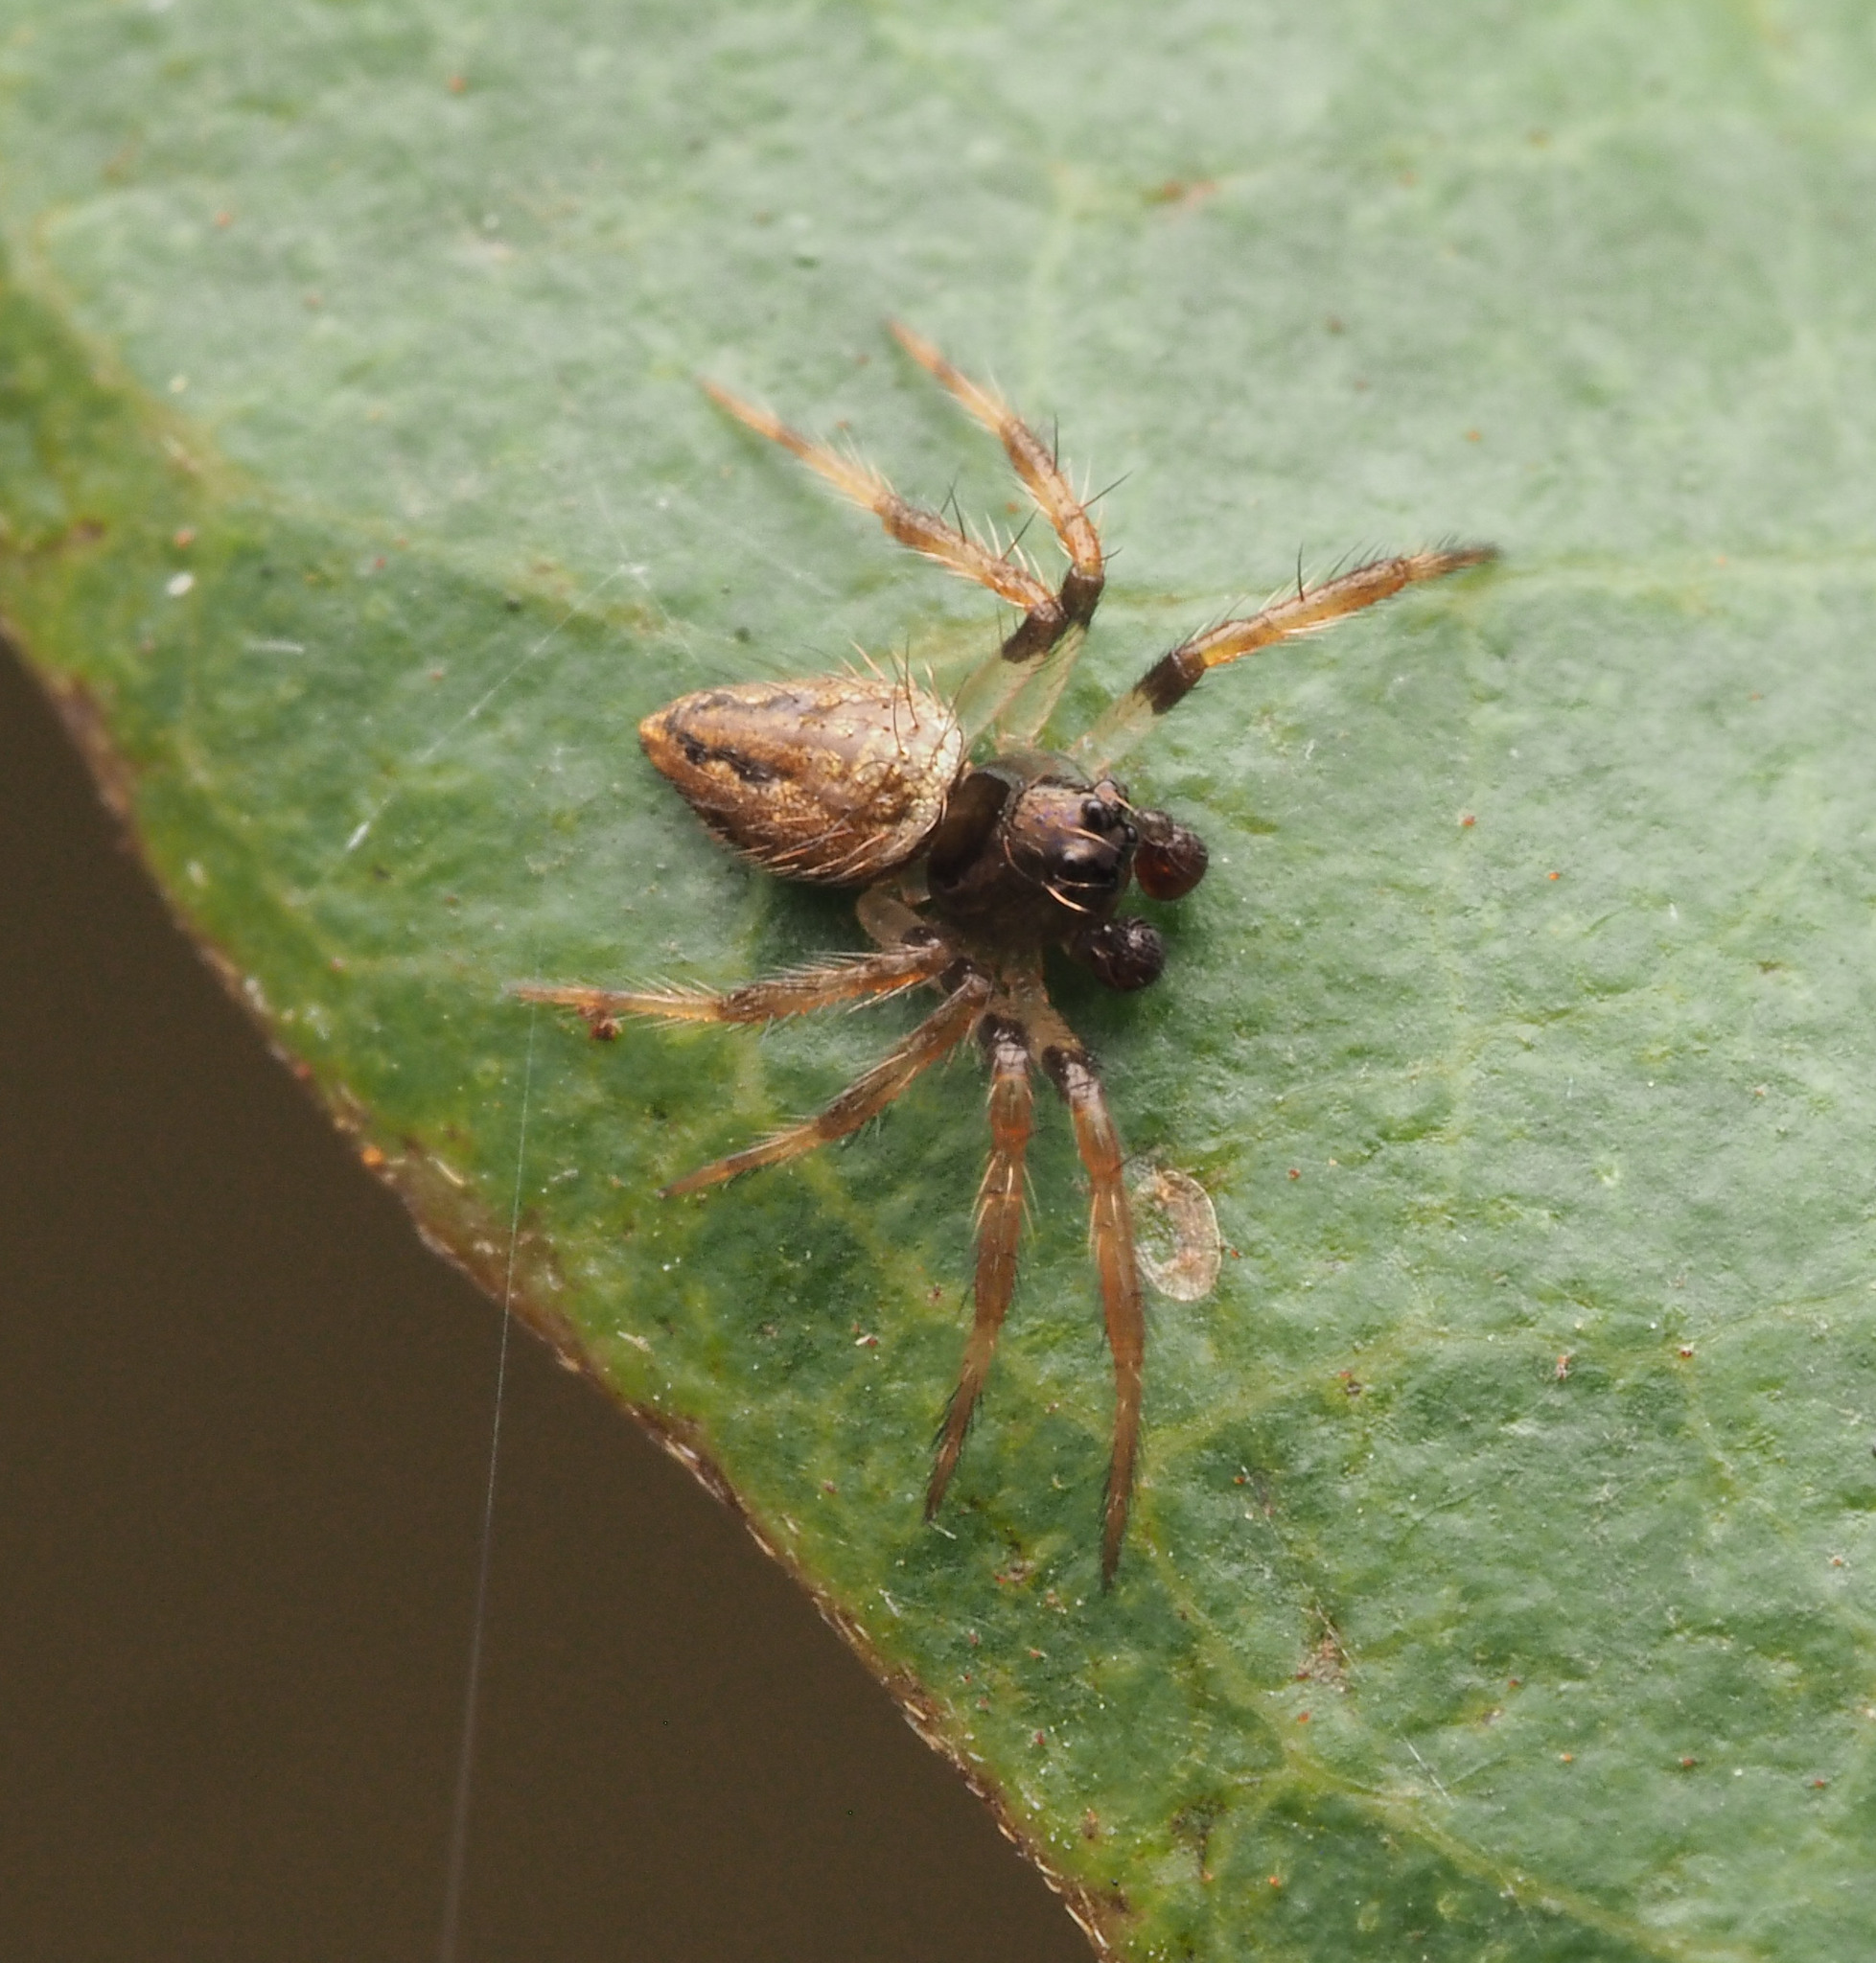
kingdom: Animalia
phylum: Arthropoda
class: Arachnida
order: Araneae
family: Theridiidae
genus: Euryopis
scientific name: Euryopis
